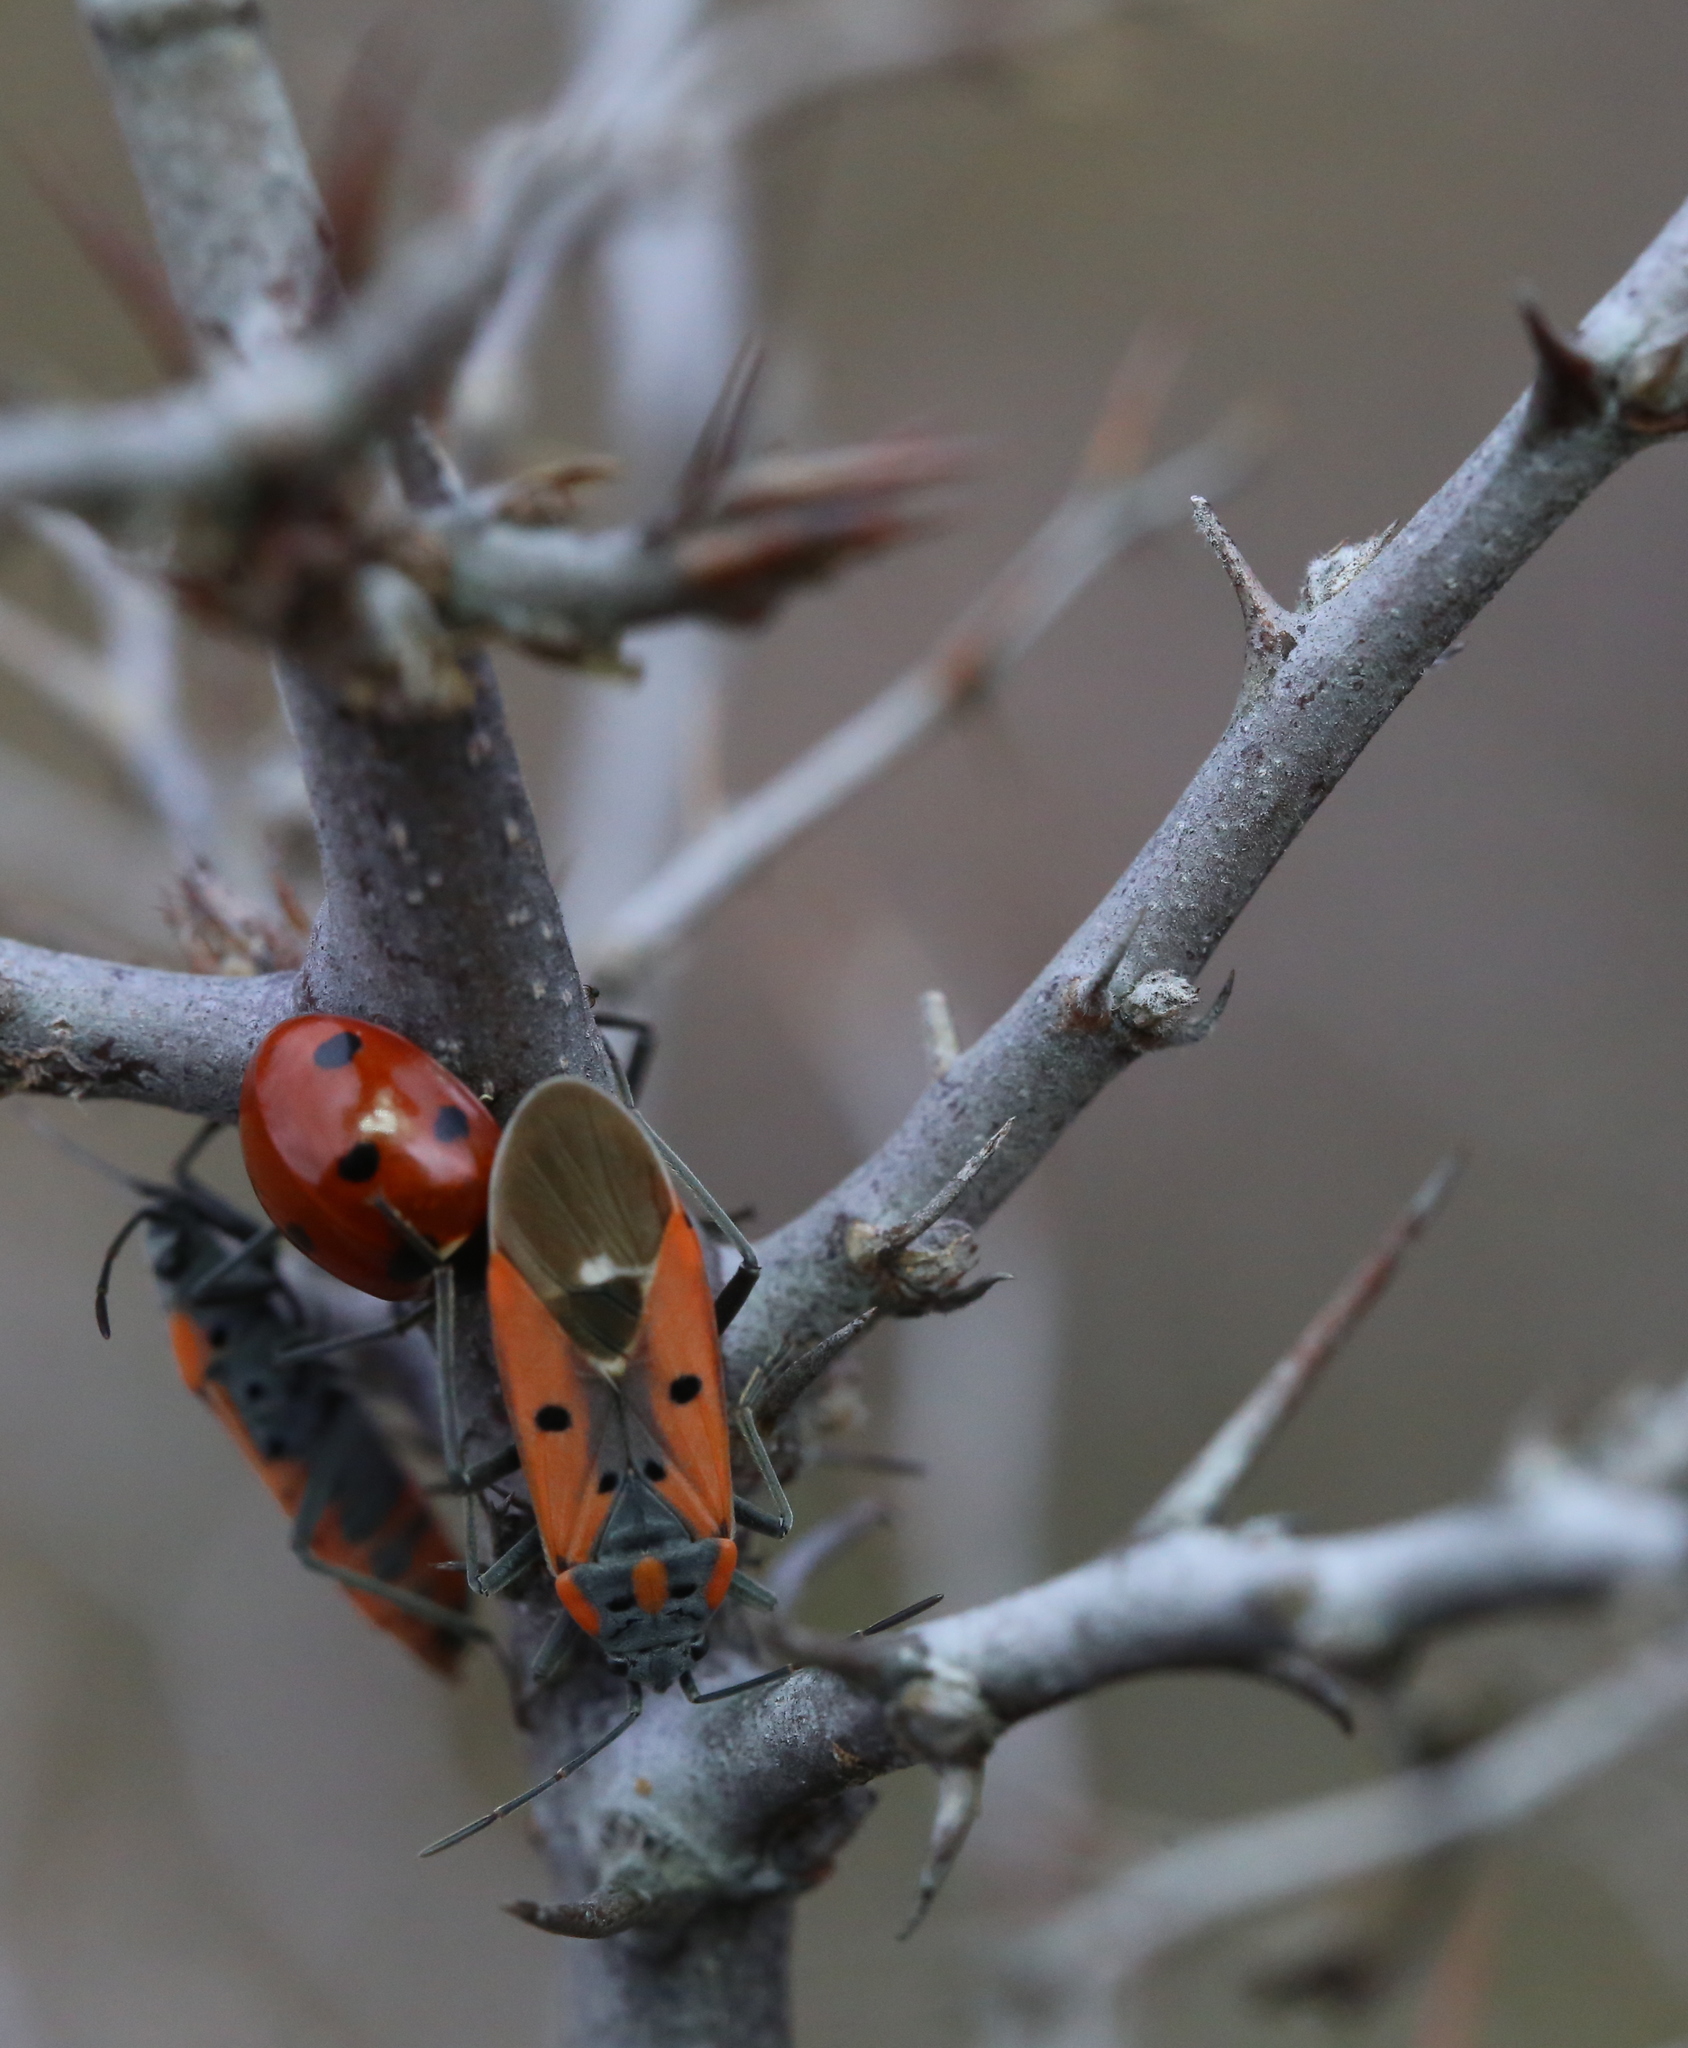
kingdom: Animalia
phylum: Arthropoda
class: Insecta
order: Hemiptera
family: Lygaeidae
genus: Lygaeus
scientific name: Lygaeus creticus
